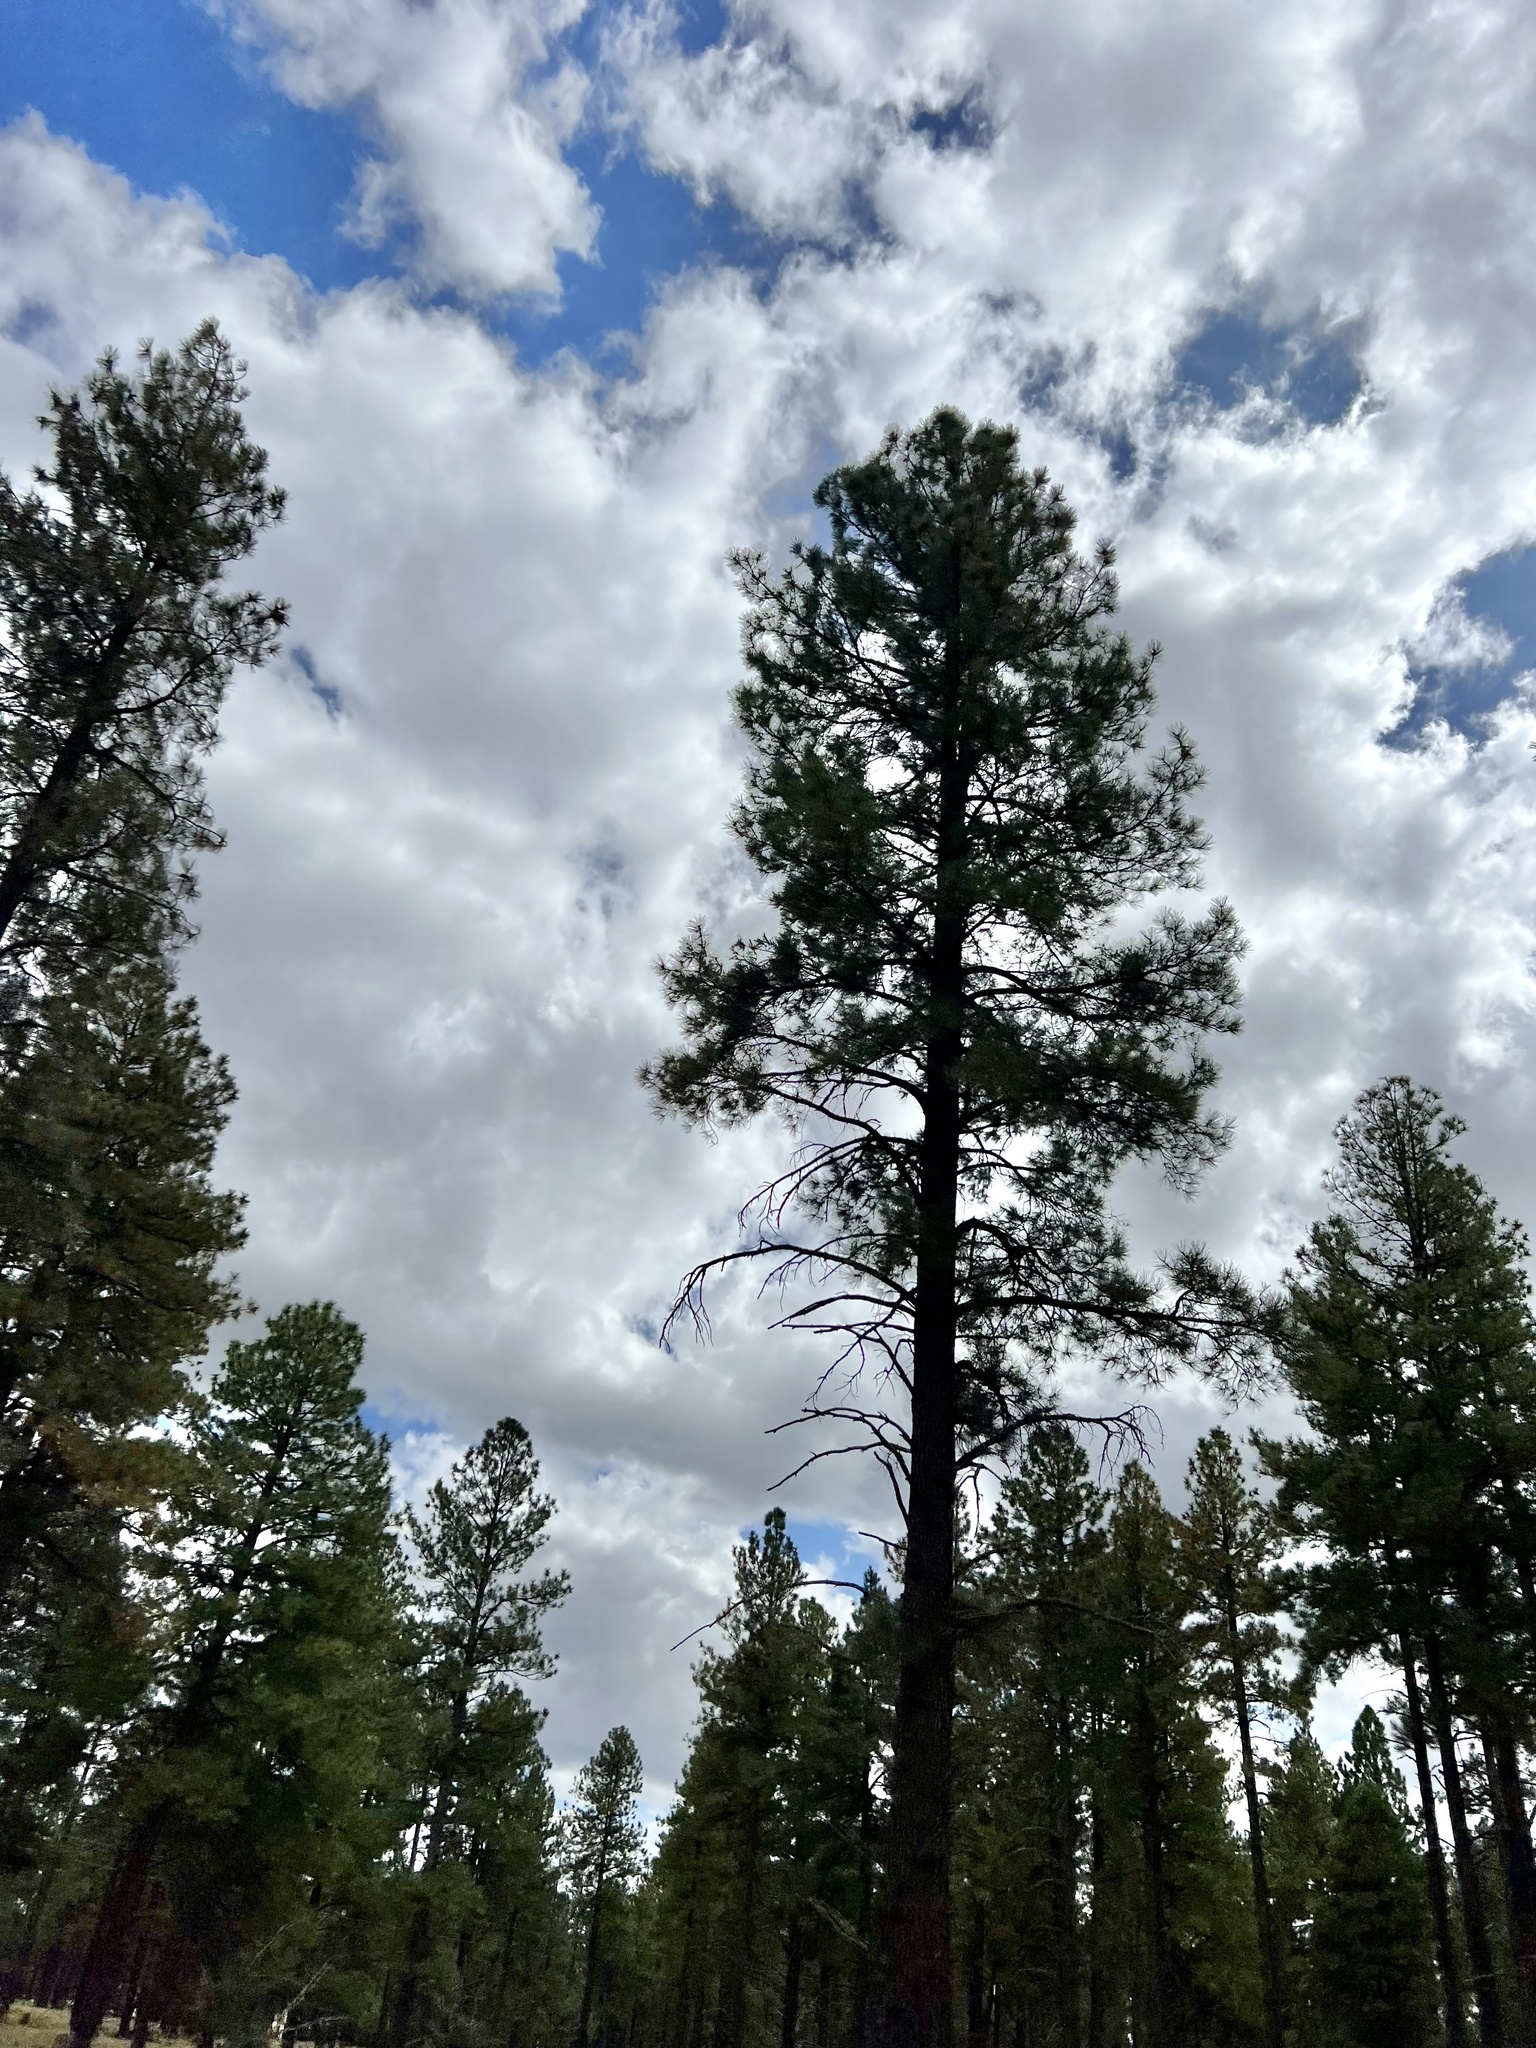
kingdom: Plantae
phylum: Tracheophyta
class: Pinopsida
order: Pinales
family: Pinaceae
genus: Pinus
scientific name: Pinus ponderosa
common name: Western yellow-pine
